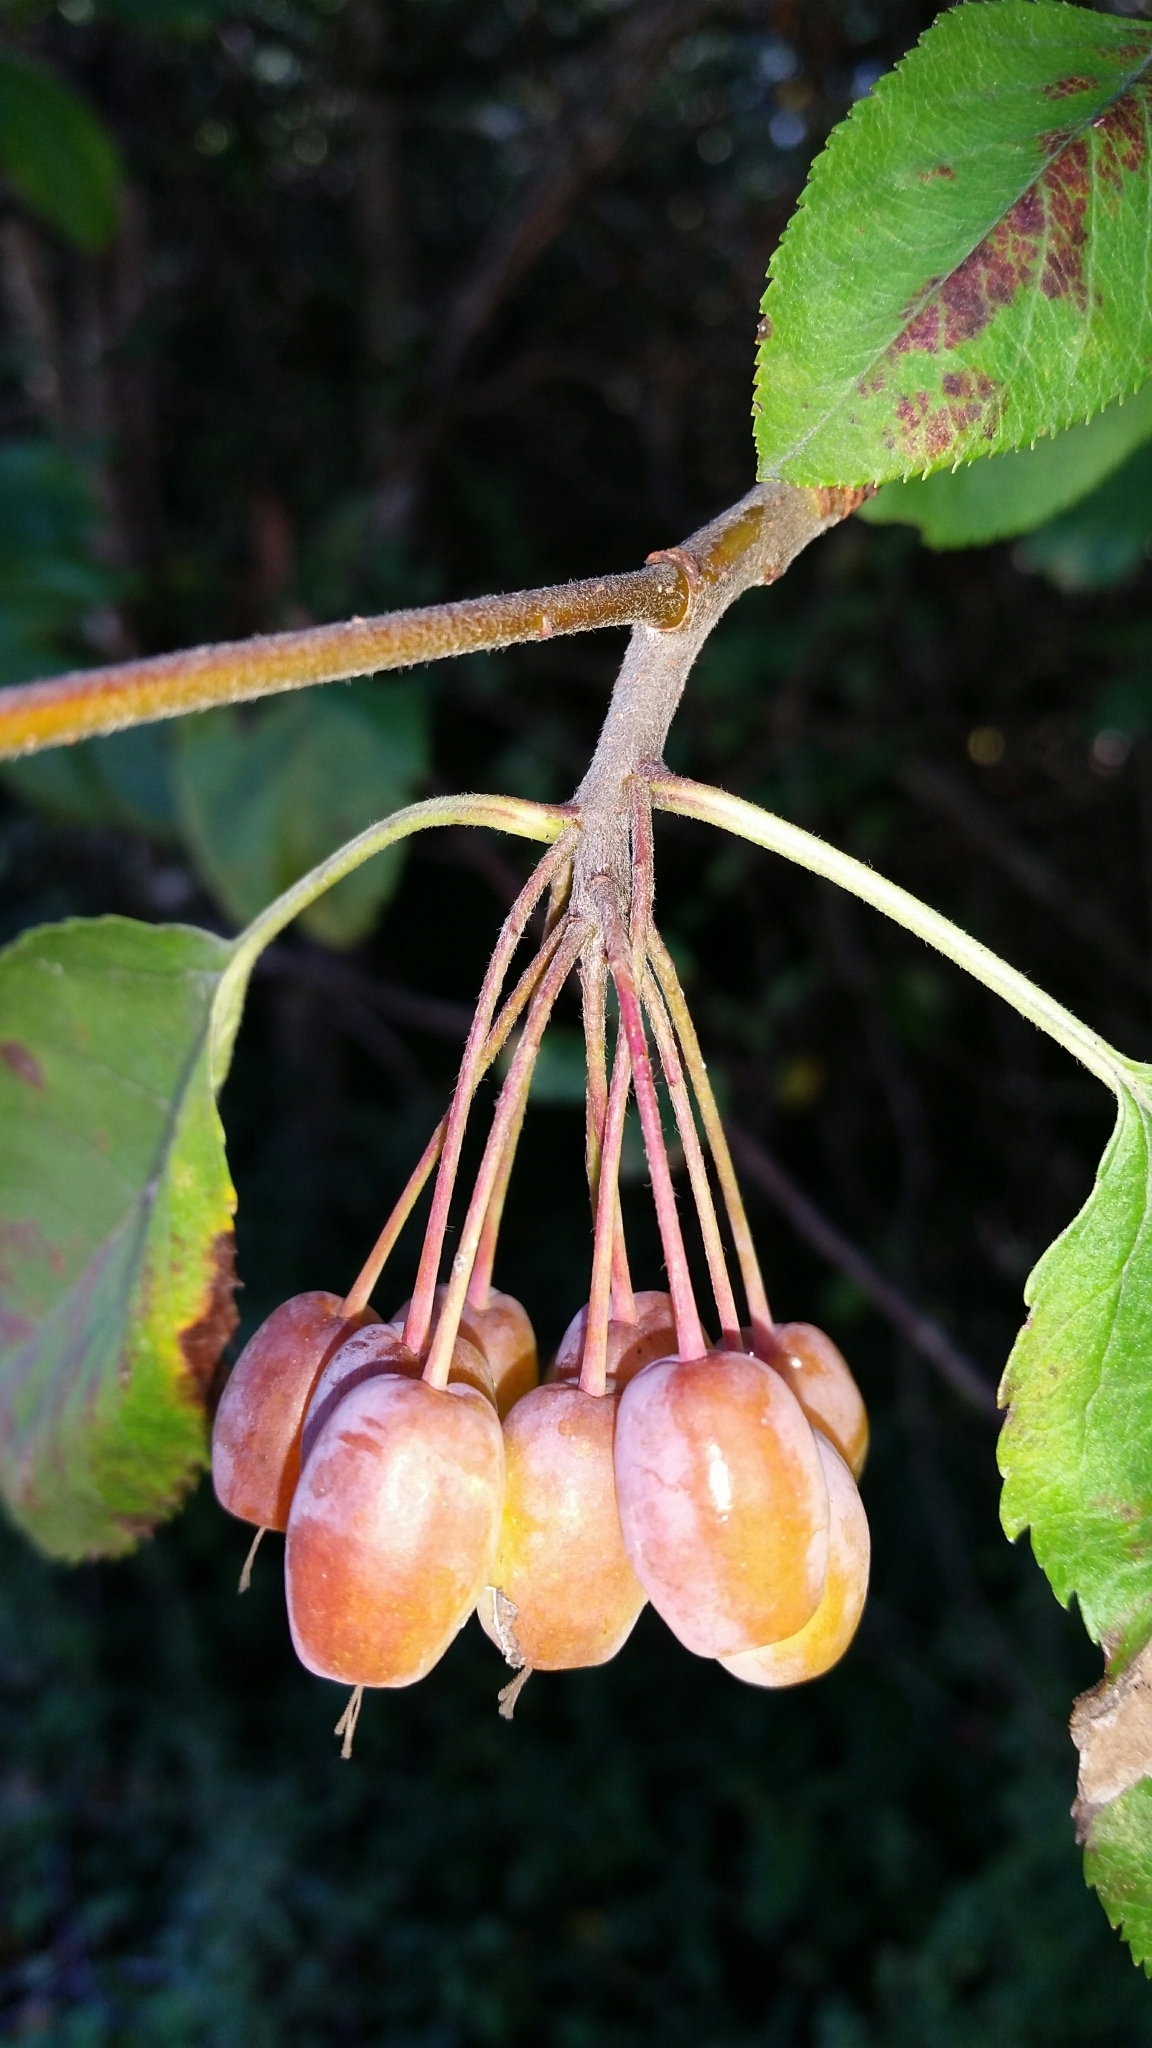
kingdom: Plantae
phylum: Tracheophyta
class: Magnoliopsida
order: Rosales
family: Rosaceae
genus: Malus
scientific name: Malus fusca
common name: Oregon crab apple
